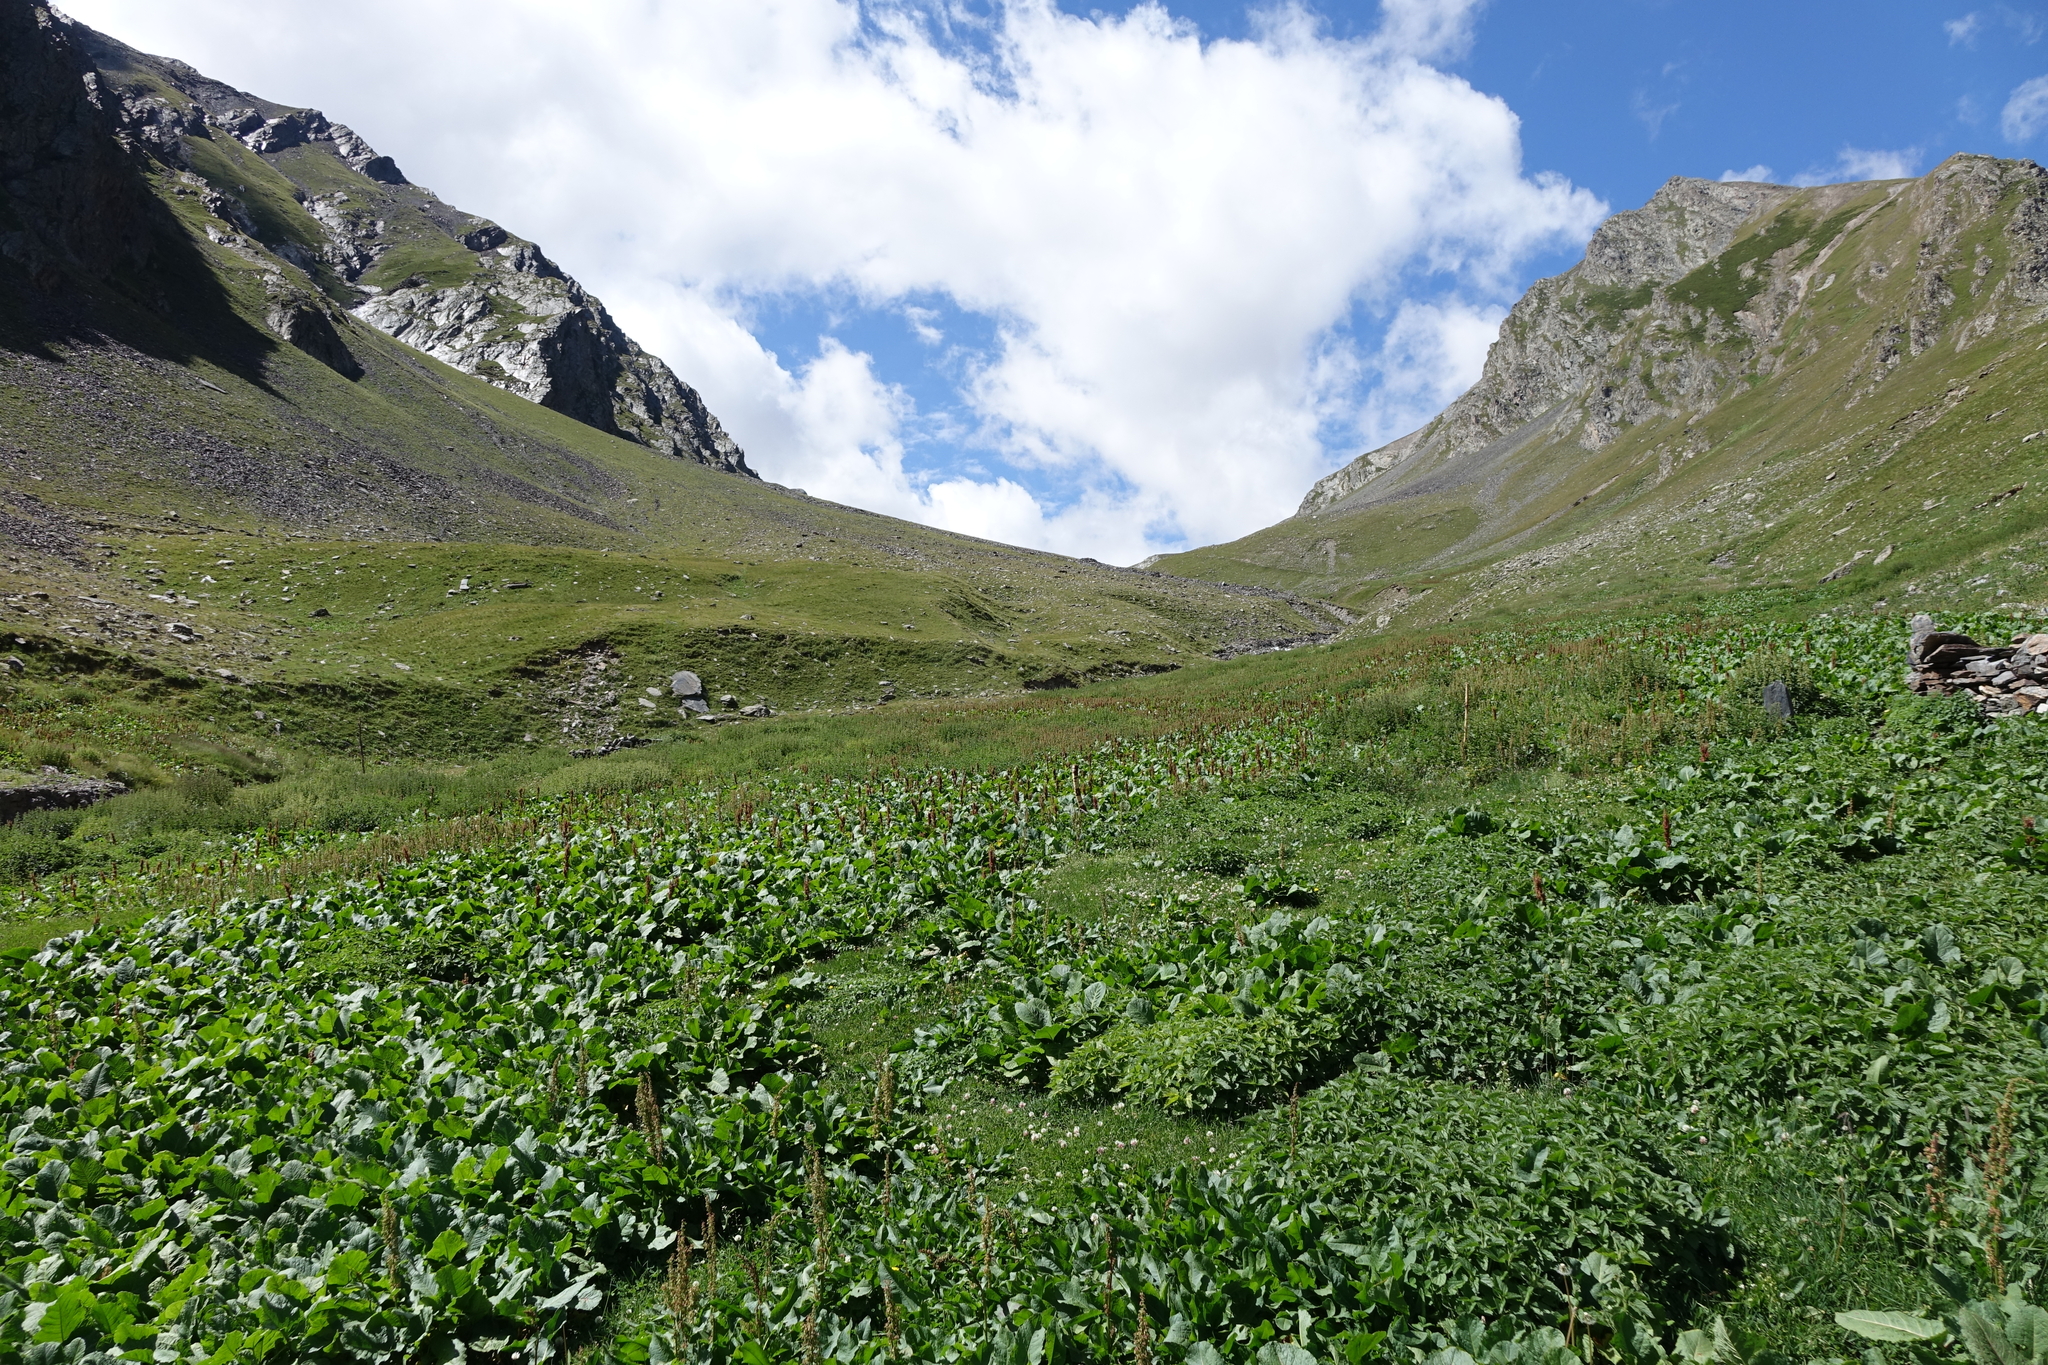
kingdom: Plantae
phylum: Tracheophyta
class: Magnoliopsida
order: Caryophyllales
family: Polygonaceae
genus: Rumex
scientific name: Rumex alpinus
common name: Alpine dock
